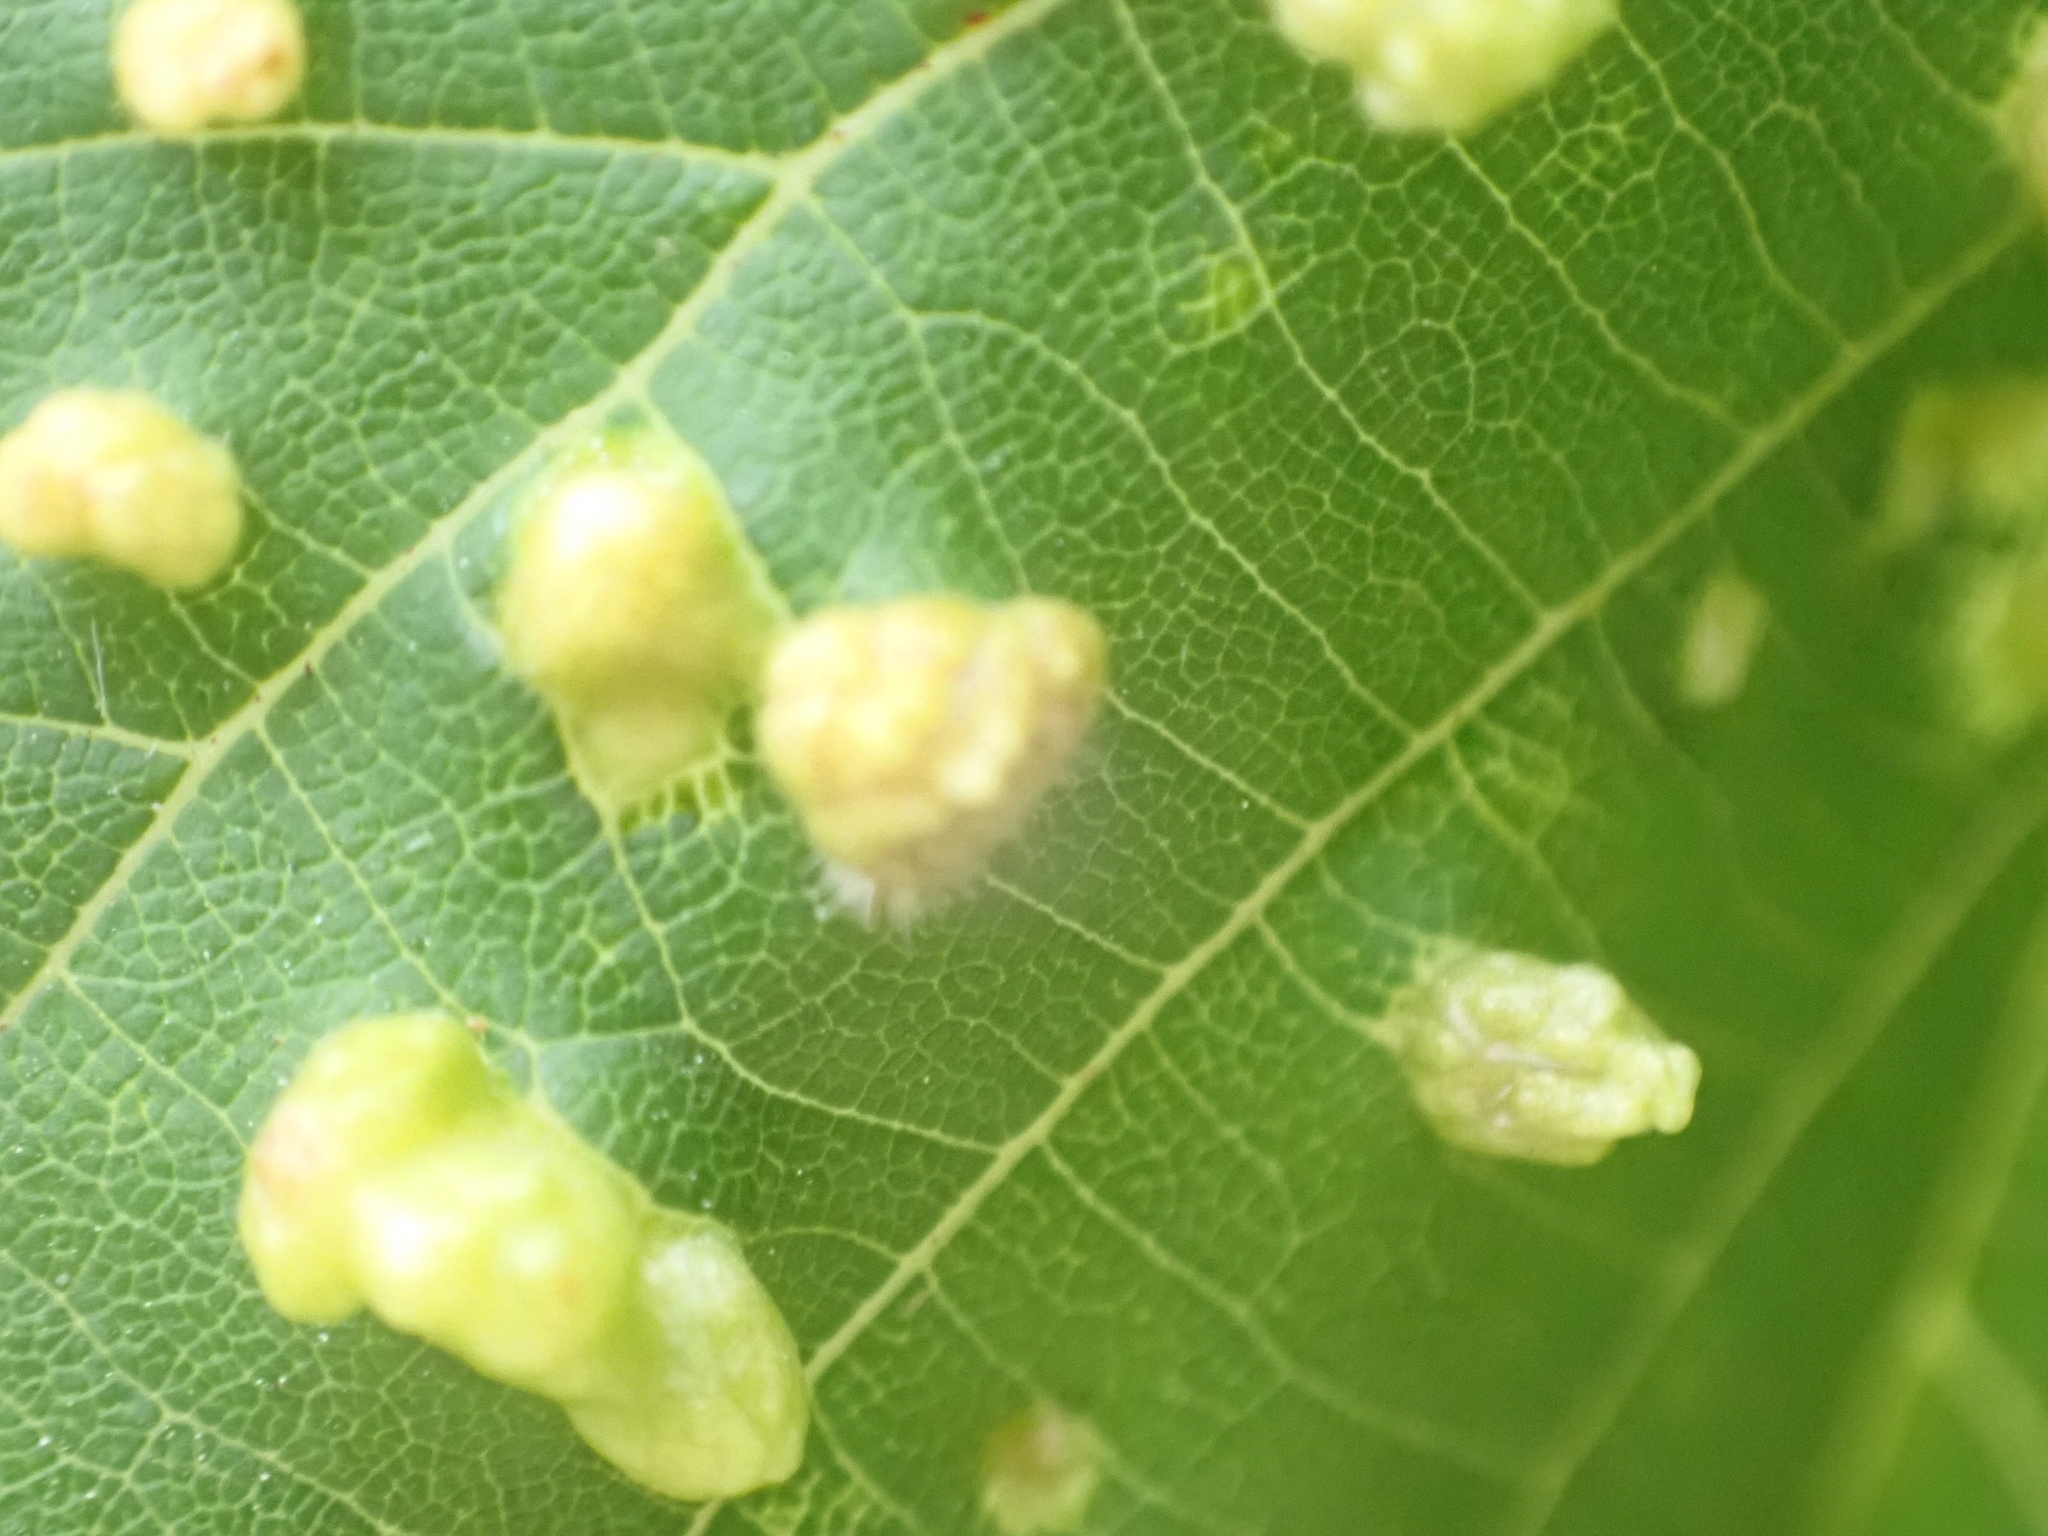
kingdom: Animalia
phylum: Arthropoda
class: Arachnida
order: Trombidiformes
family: Eriophyidae
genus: Eriophyes
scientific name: Eriophyes tiliae
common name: Red nail gall mite
